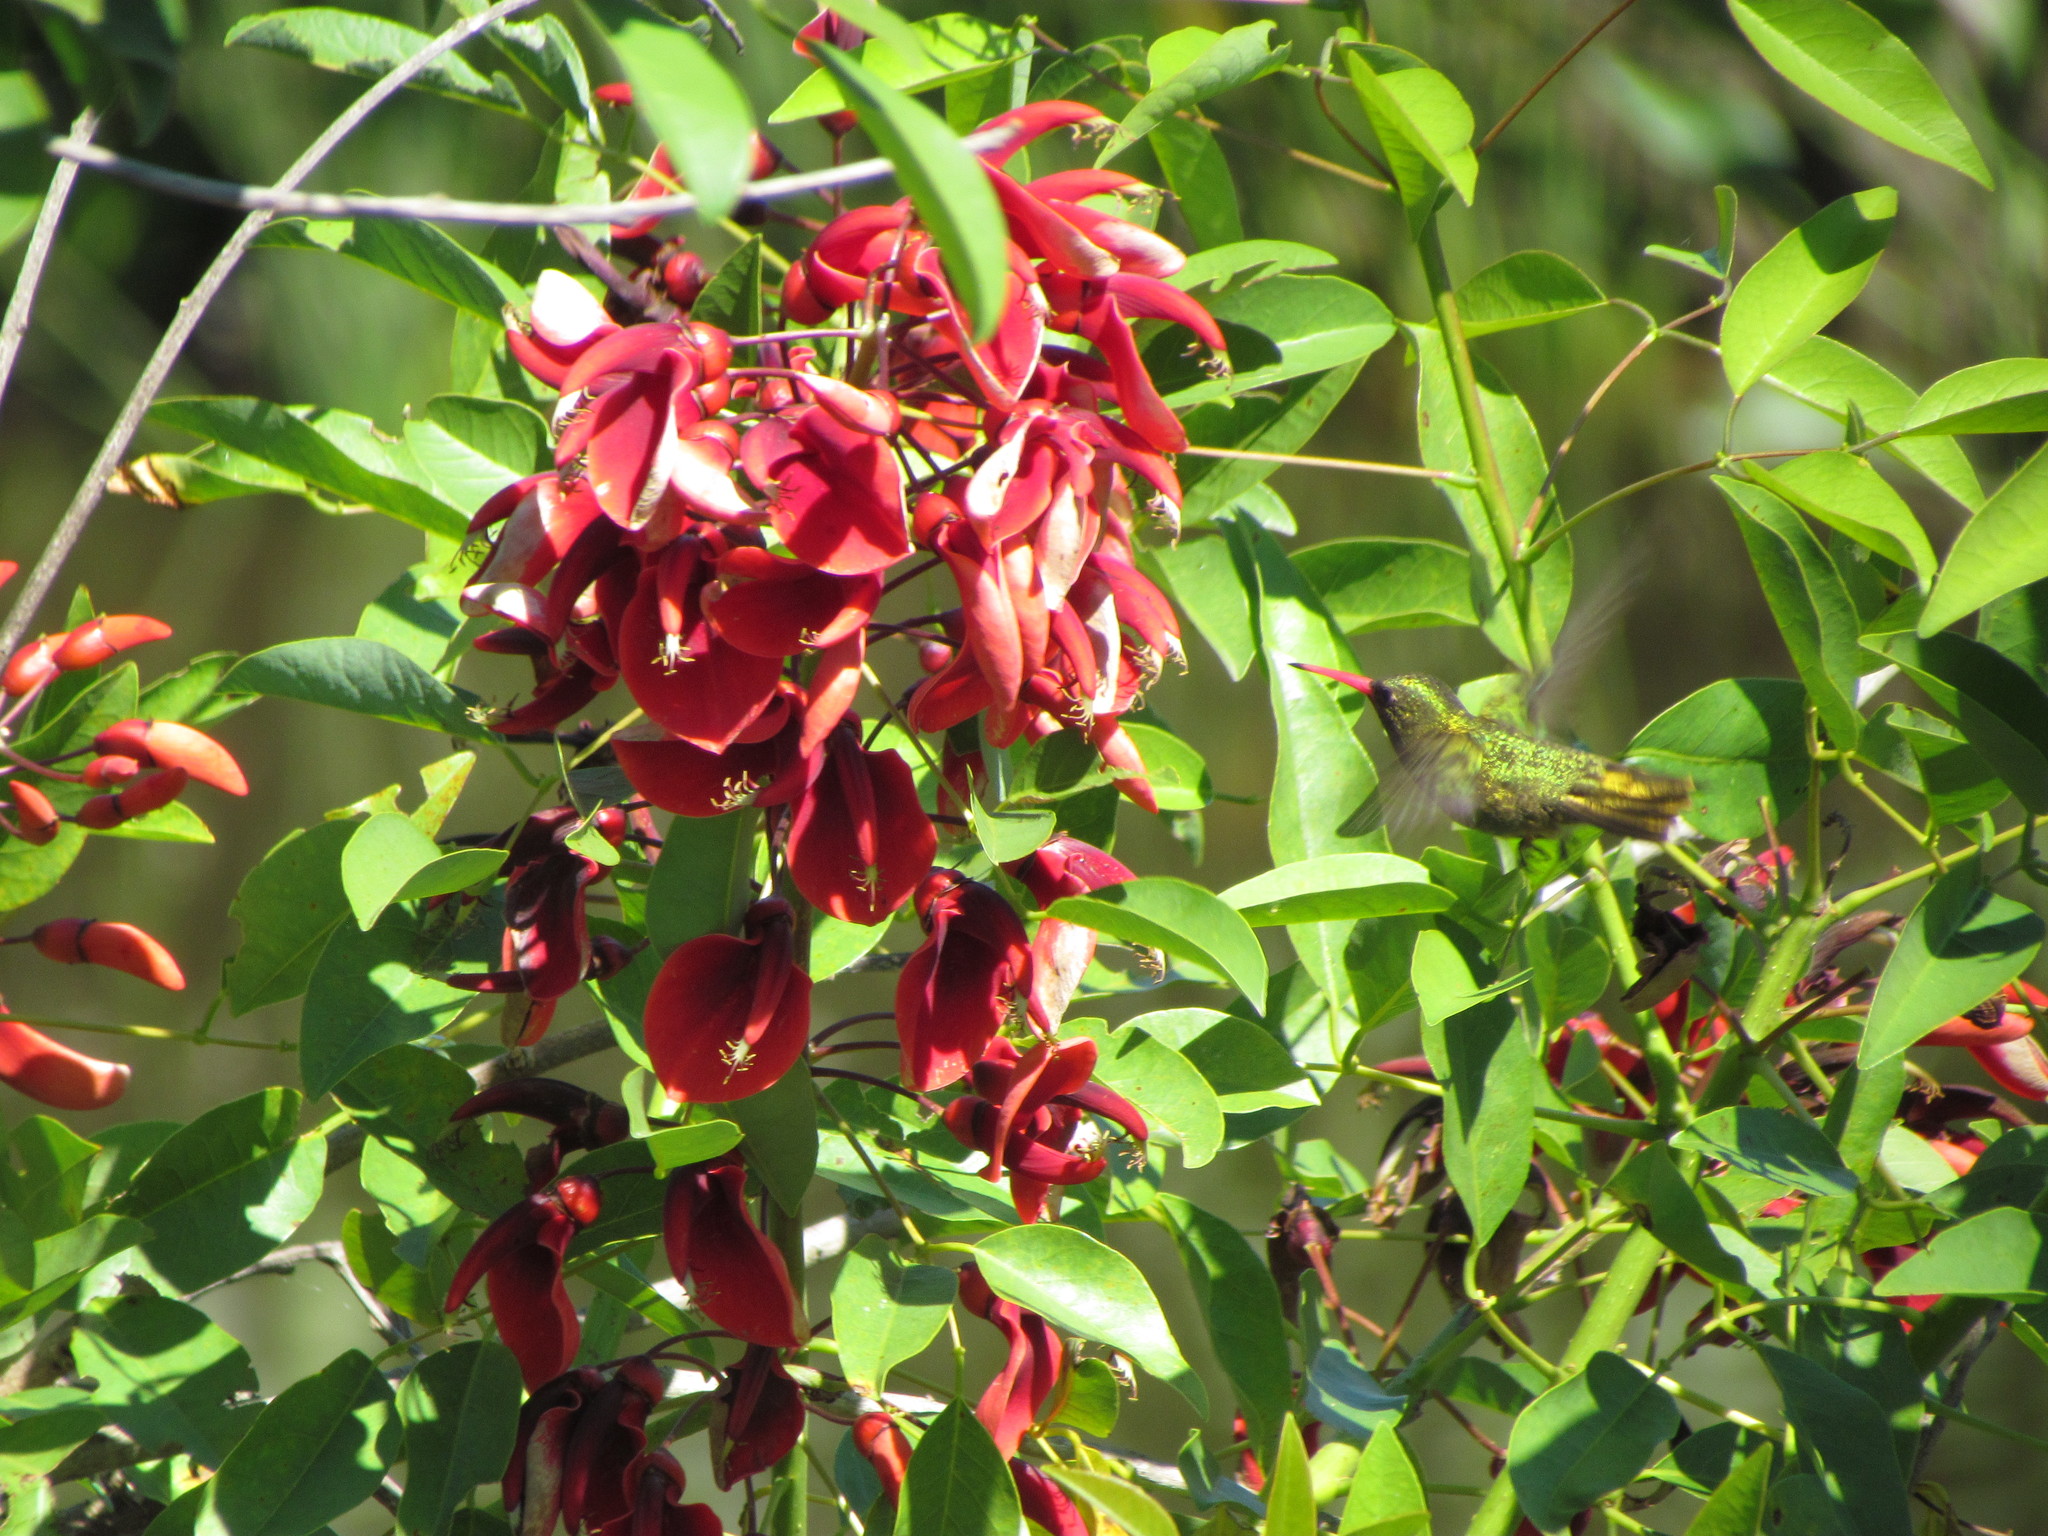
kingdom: Animalia
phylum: Chordata
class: Aves
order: Apodiformes
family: Trochilidae
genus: Hylocharis
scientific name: Hylocharis chrysura
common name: Gilded sapphire
